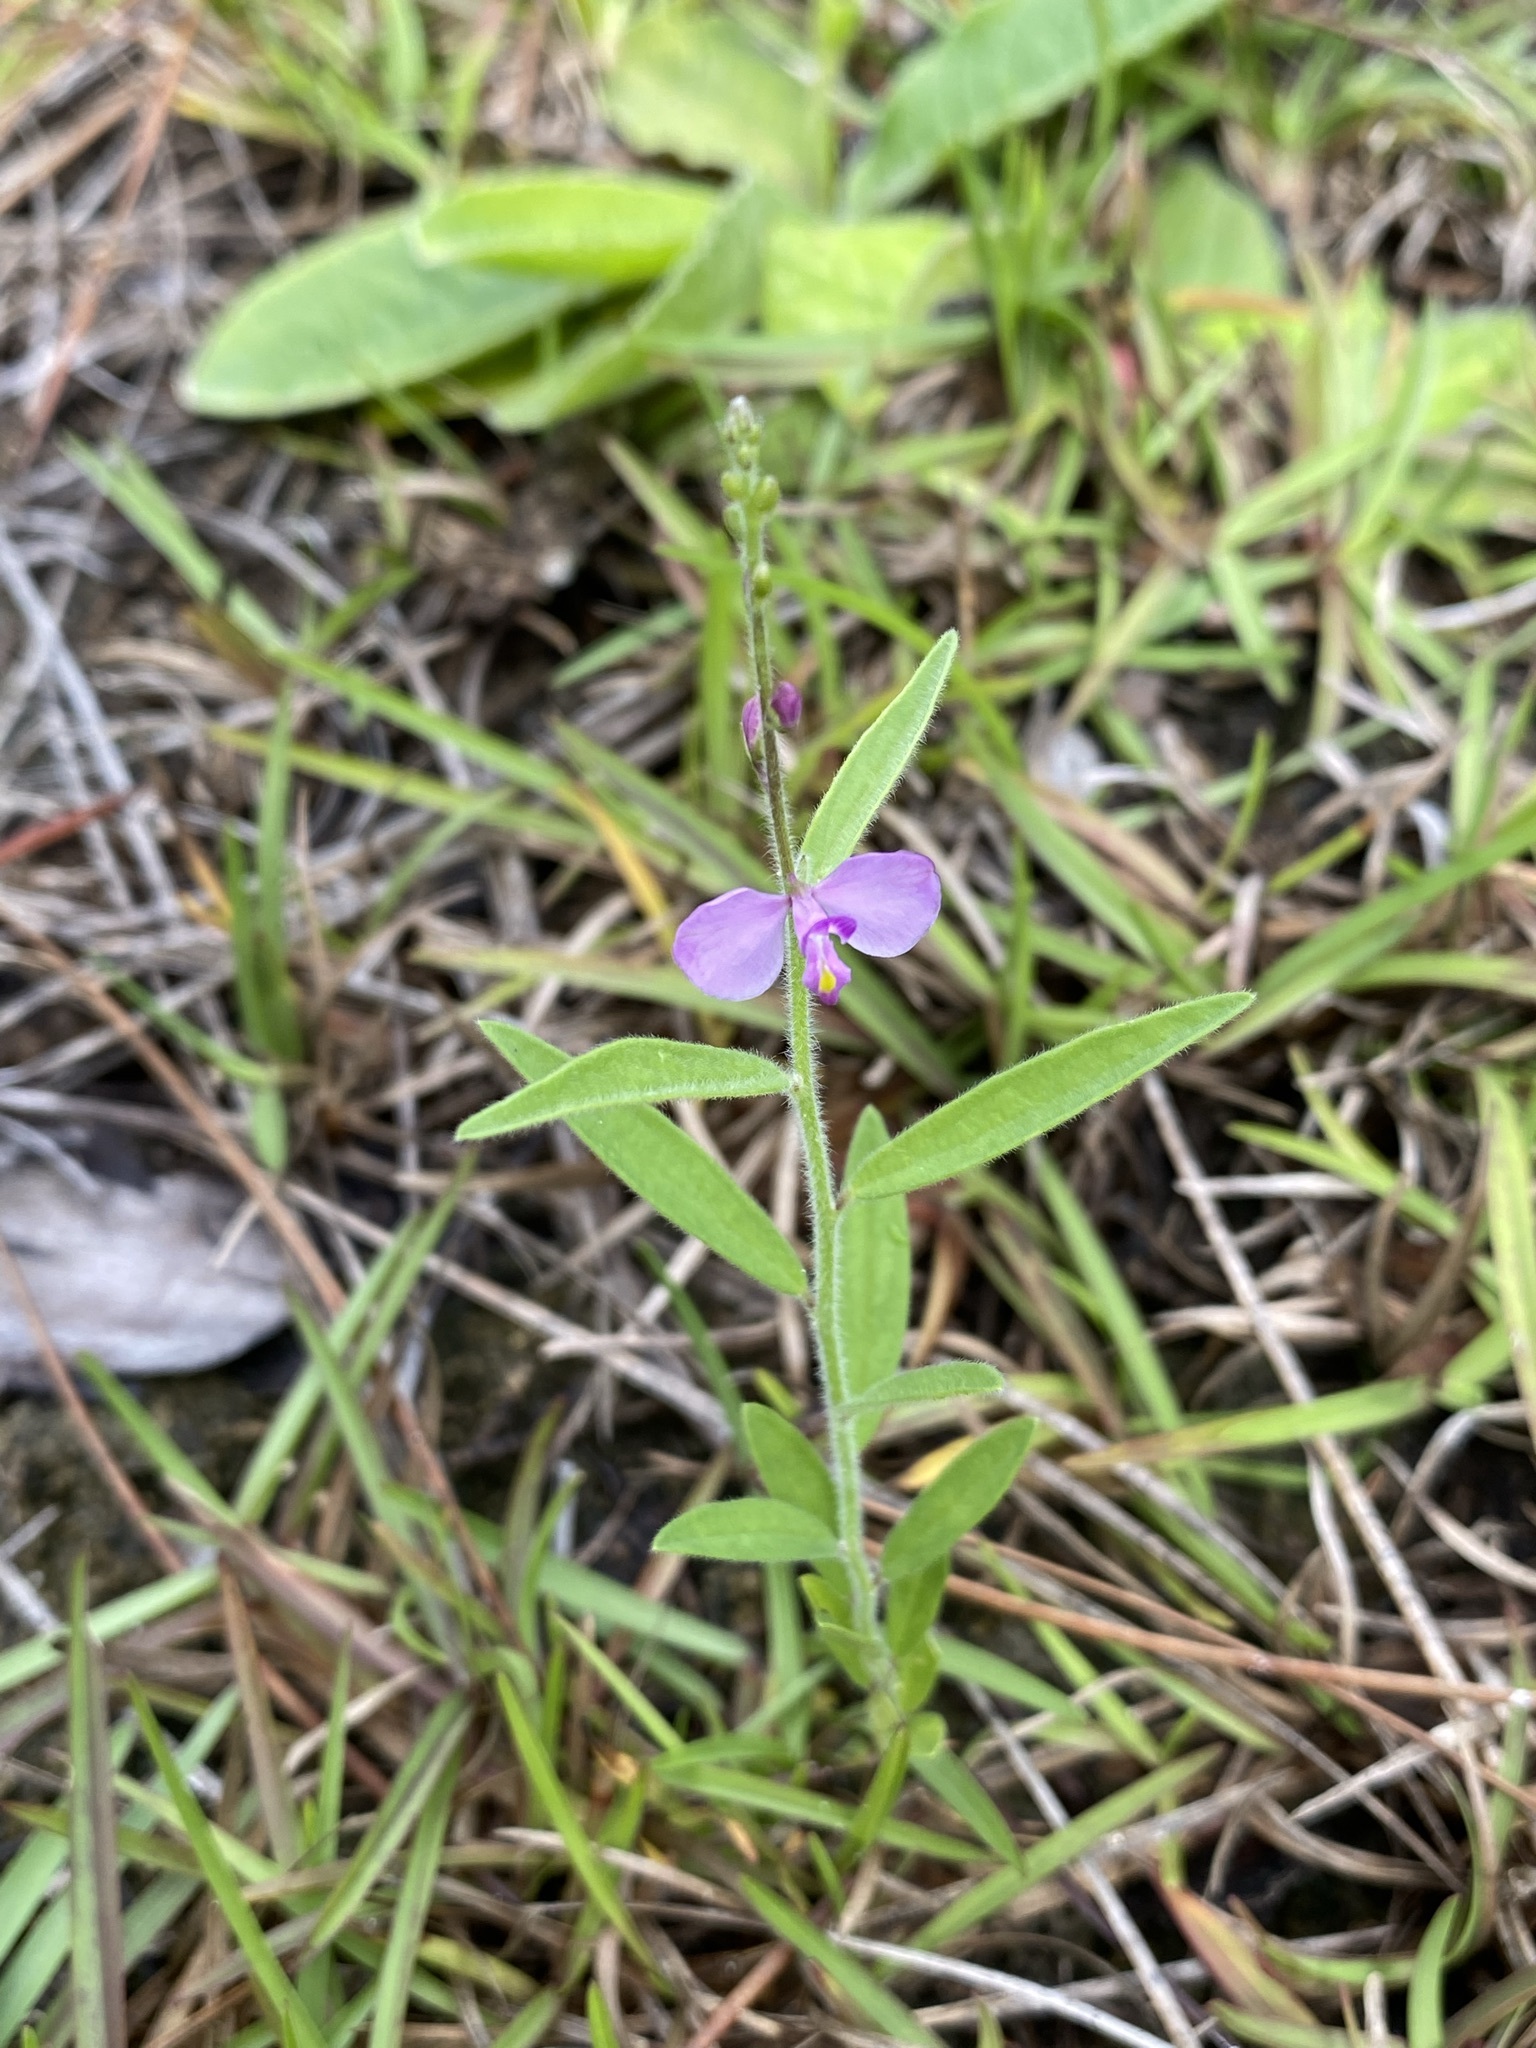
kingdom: Plantae
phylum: Tracheophyta
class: Magnoliopsida
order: Fabales
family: Polygalaceae
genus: Asemeia
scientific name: Asemeia grandiflora
